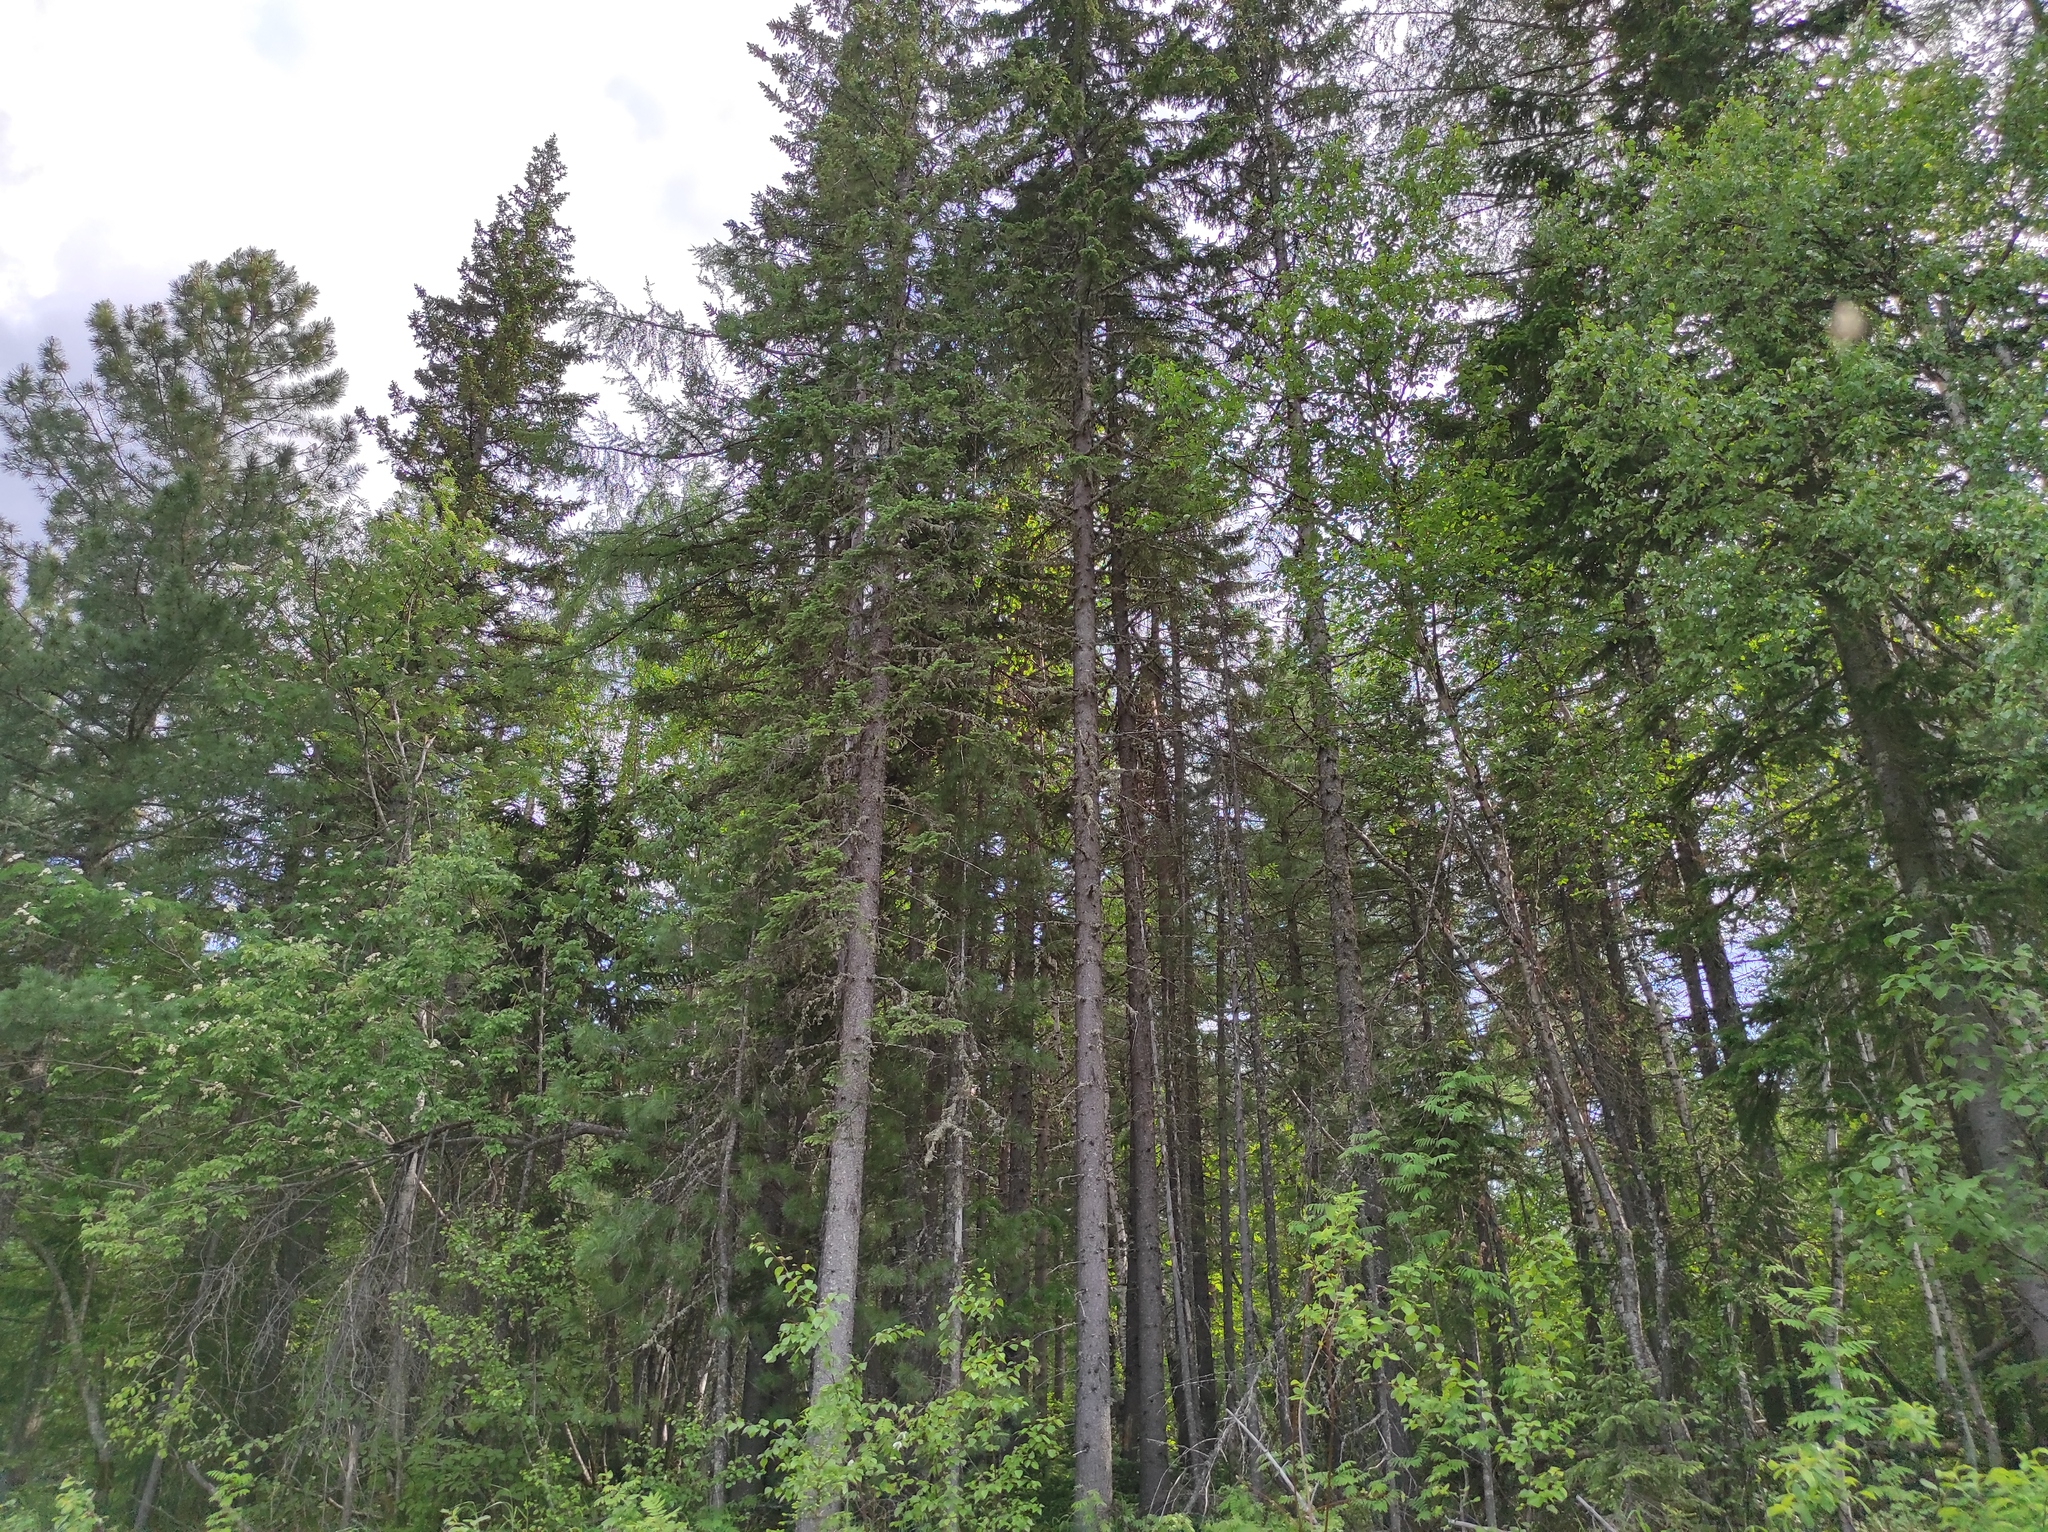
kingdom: Plantae
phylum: Tracheophyta
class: Pinopsida
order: Pinales
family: Pinaceae
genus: Larix
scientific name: Larix gmelinii
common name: Dahurian larch
